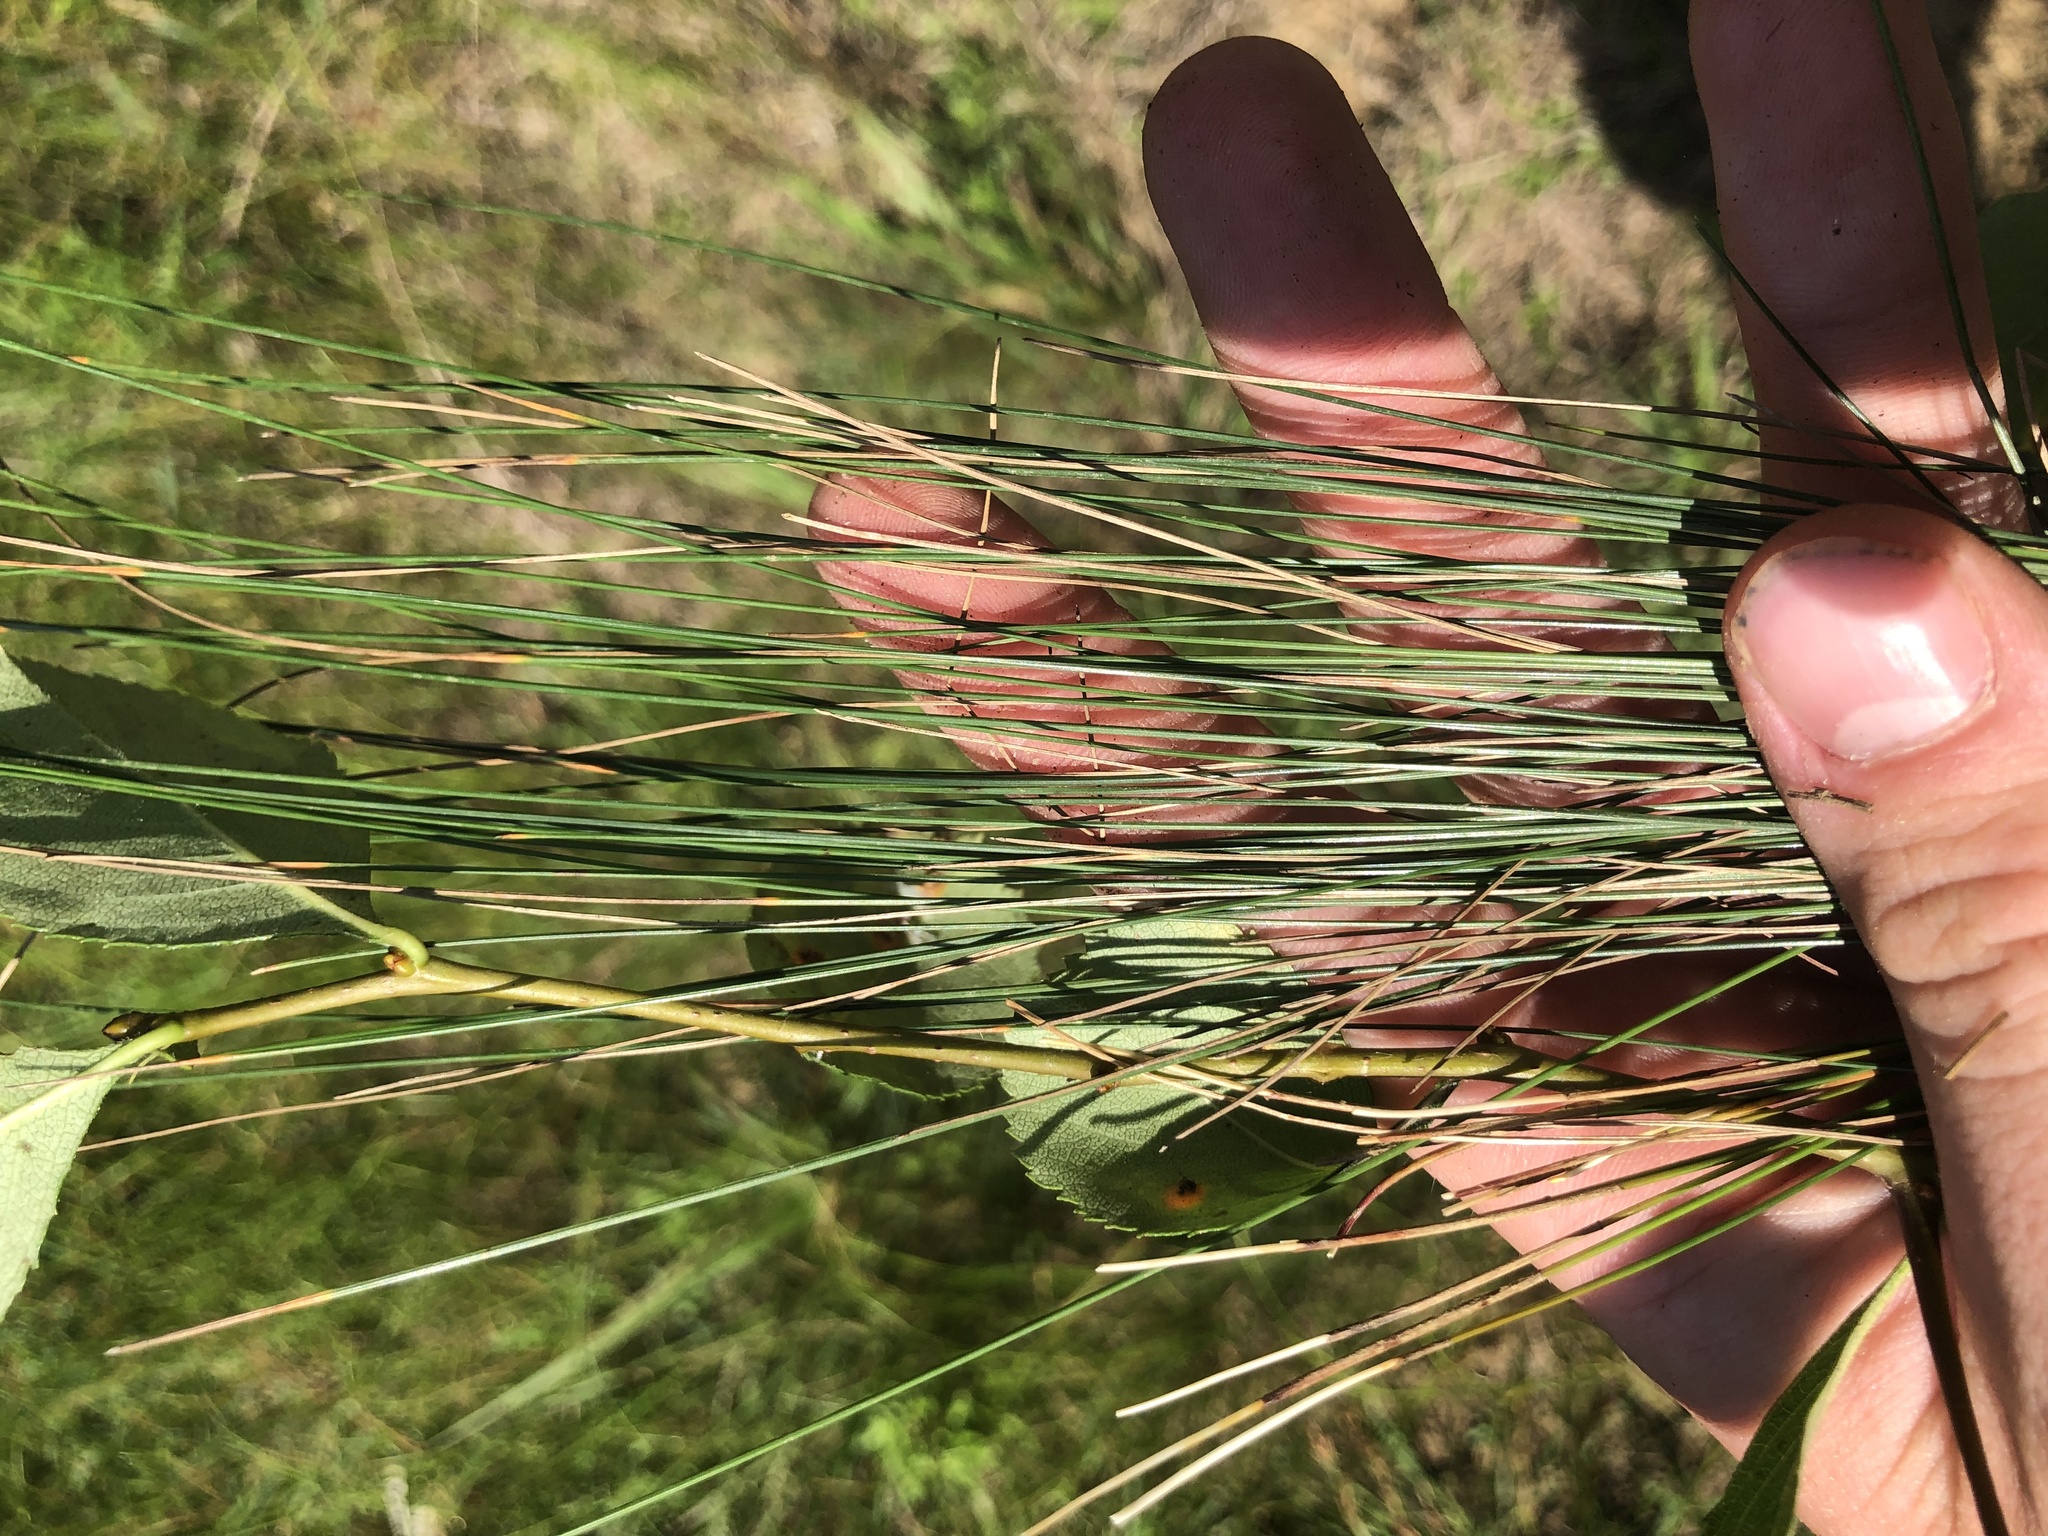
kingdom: Plantae
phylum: Tracheophyta
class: Liliopsida
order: Poales
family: Cyperaceae
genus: Eleocharis
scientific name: Eleocharis erythropoda
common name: Bald spikerush
